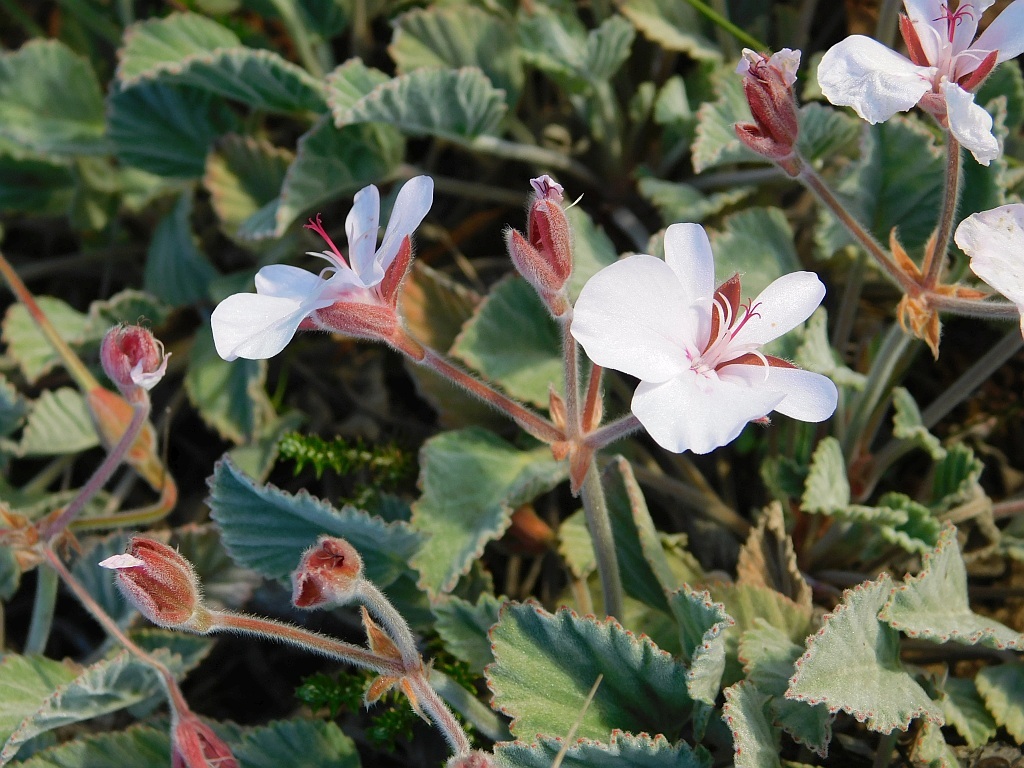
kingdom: Plantae
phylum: Tracheophyta
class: Magnoliopsida
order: Geraniales
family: Geraniaceae
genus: Pelargonium
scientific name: Pelargonium ovale
